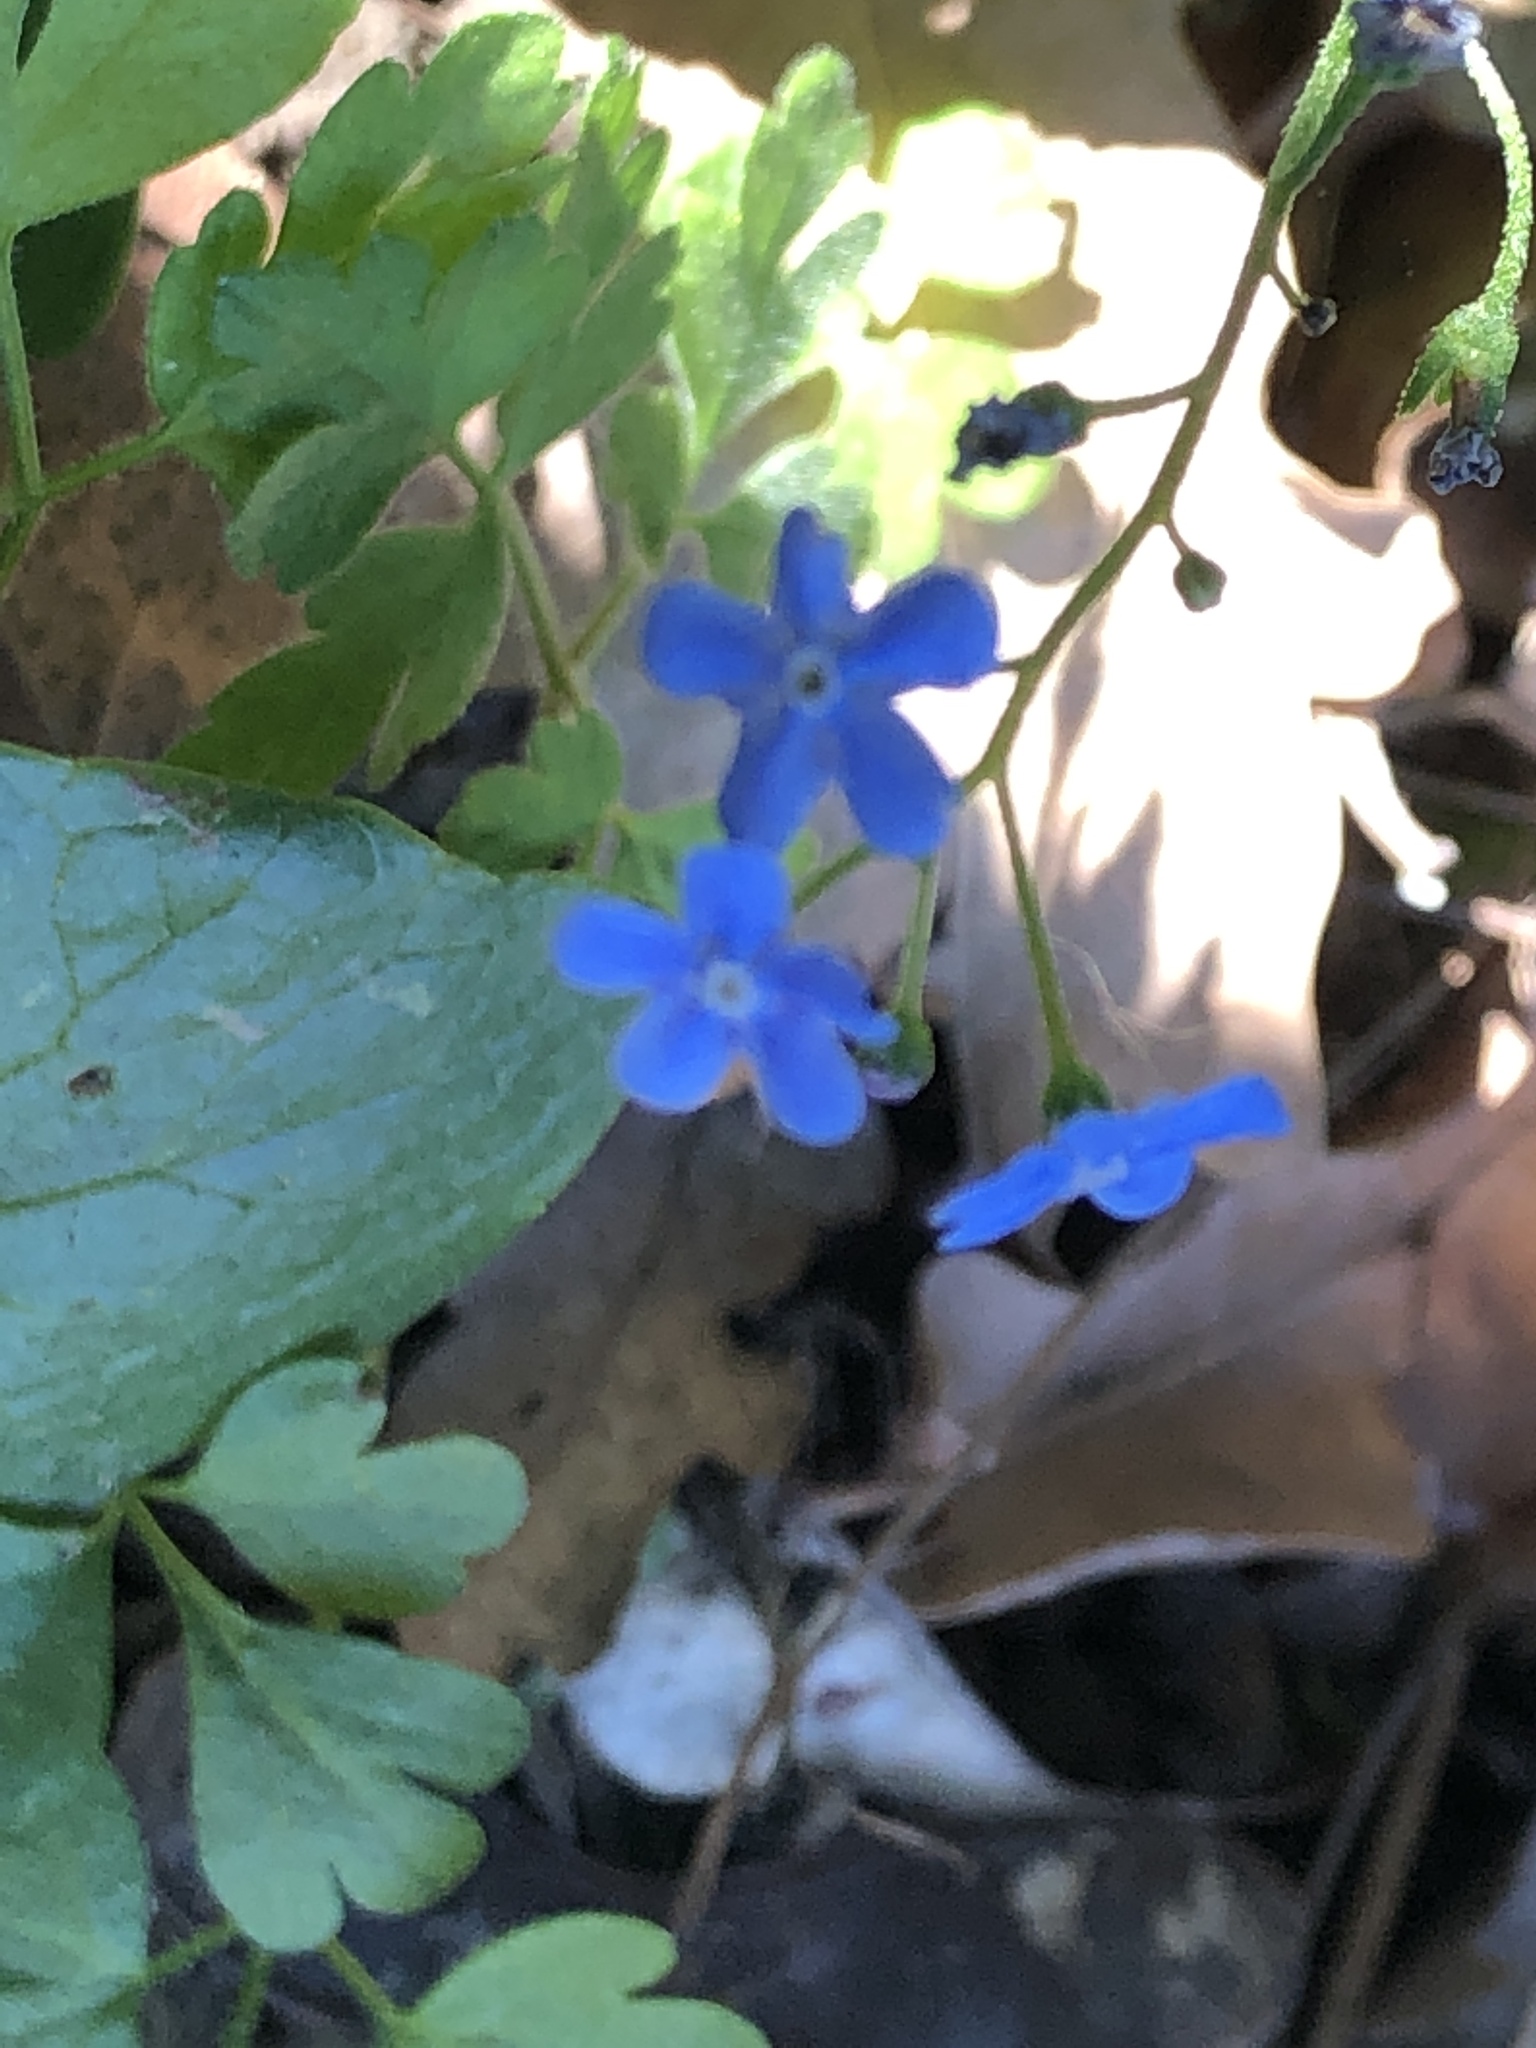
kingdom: Plantae
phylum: Tracheophyta
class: Magnoliopsida
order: Boraginales
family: Boraginaceae
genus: Brunnera
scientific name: Brunnera macrophylla
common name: Great forget-me-not
